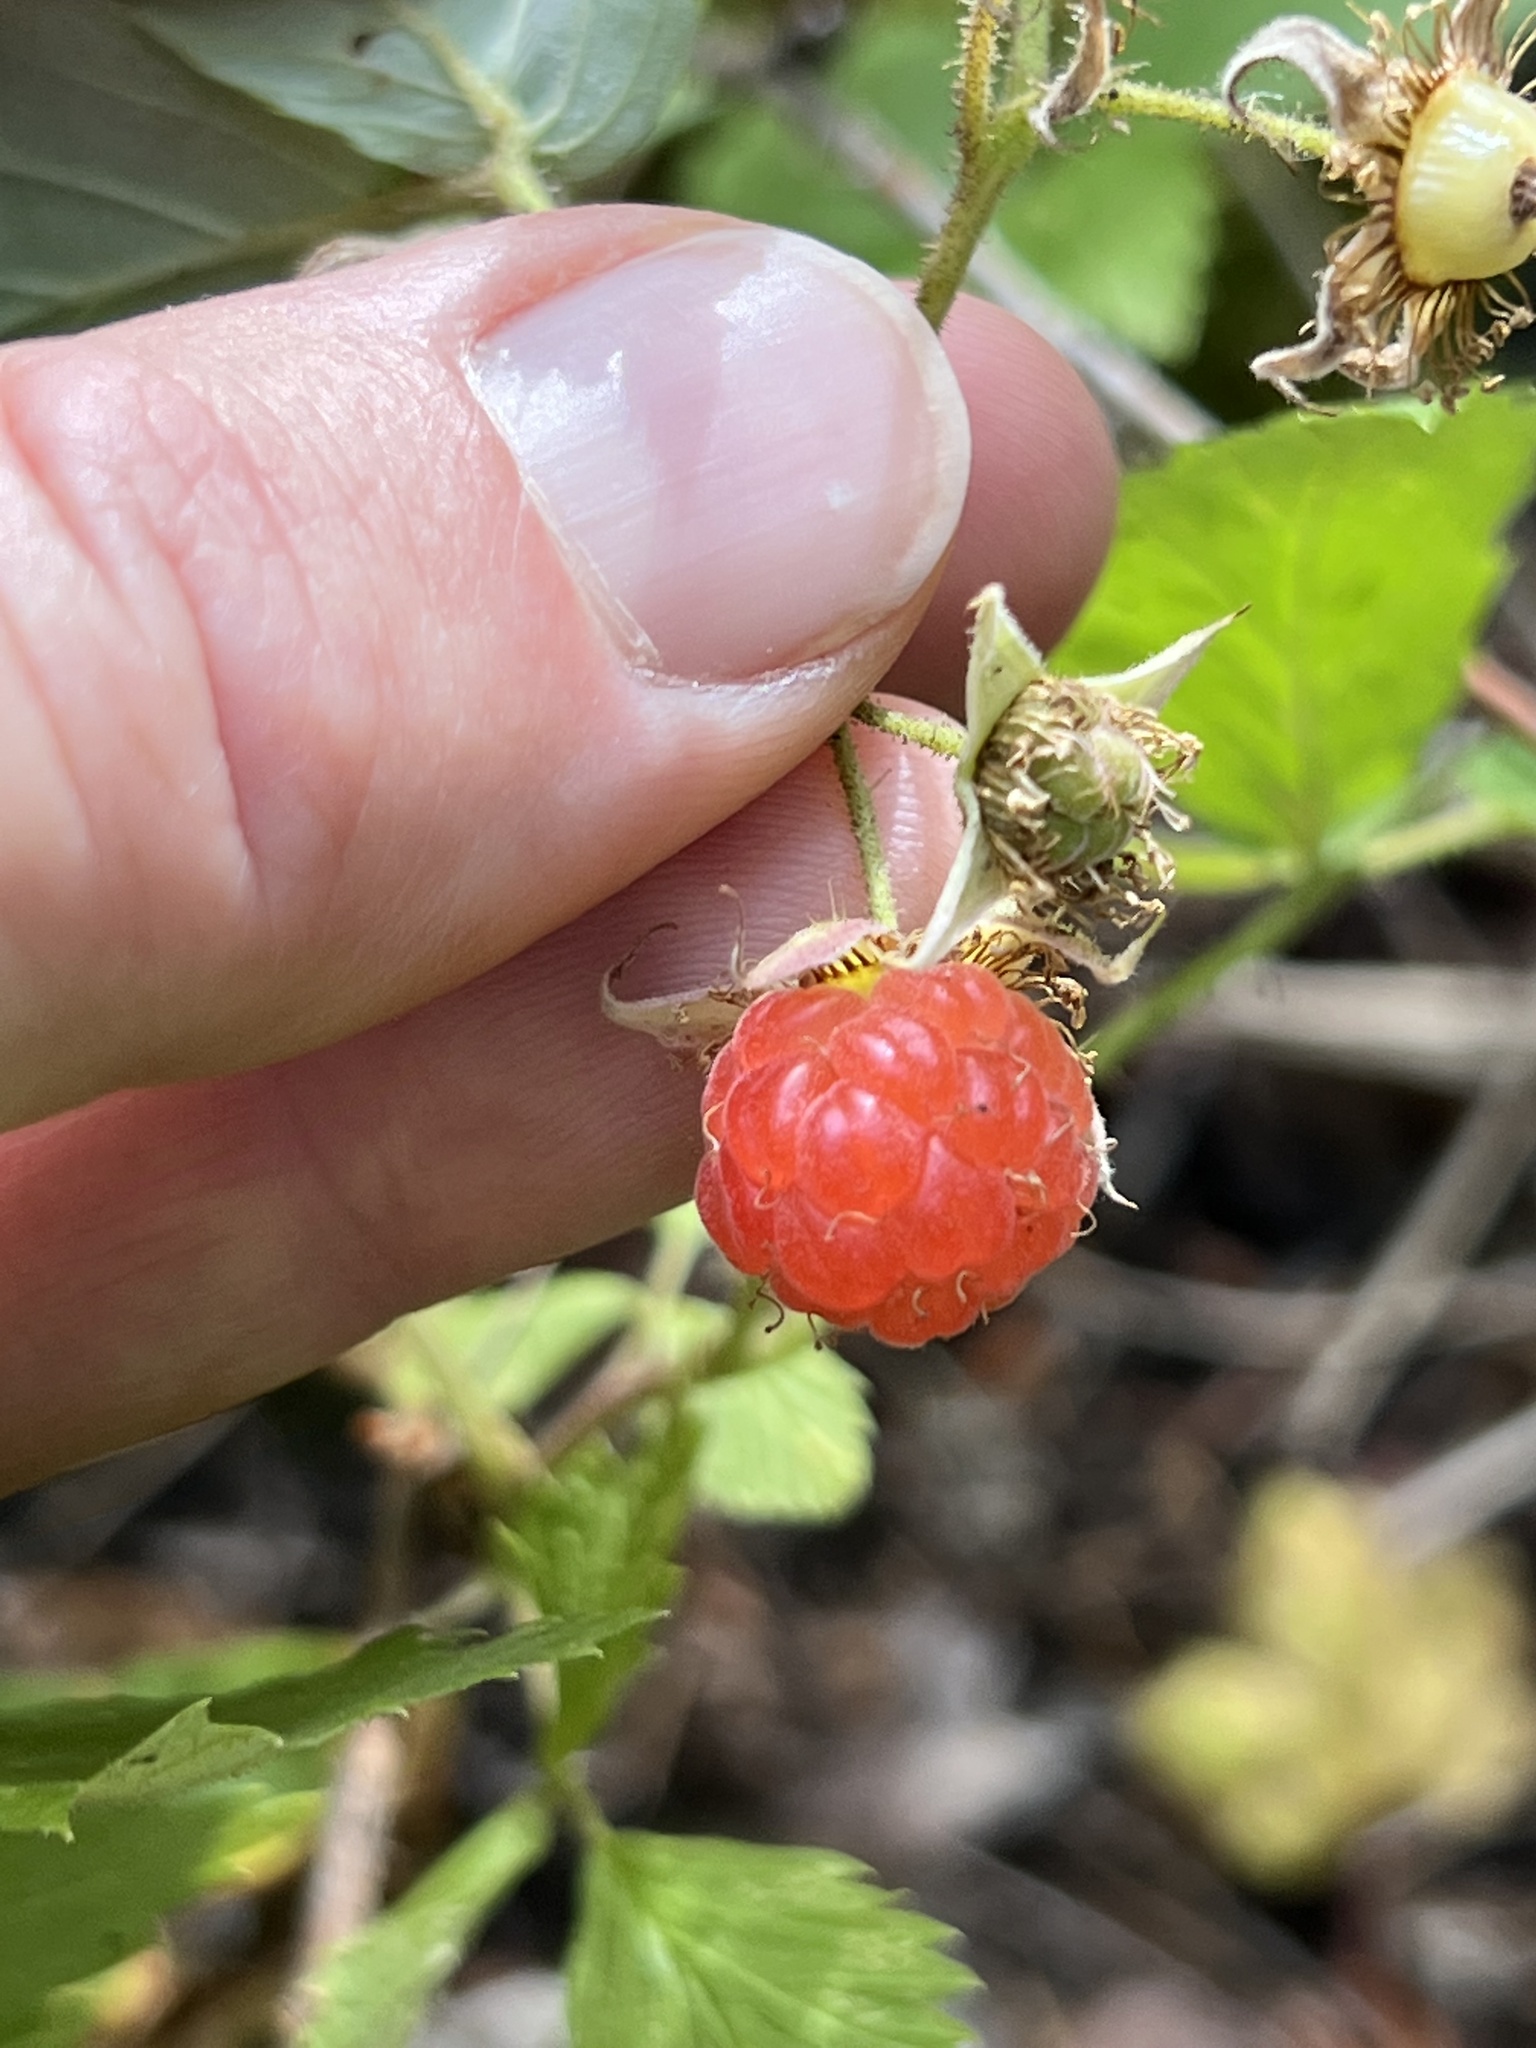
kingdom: Plantae
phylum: Tracheophyta
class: Magnoliopsida
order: Rosales
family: Rosaceae
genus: Rubus
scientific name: Rubus idaeus
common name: Raspberry
